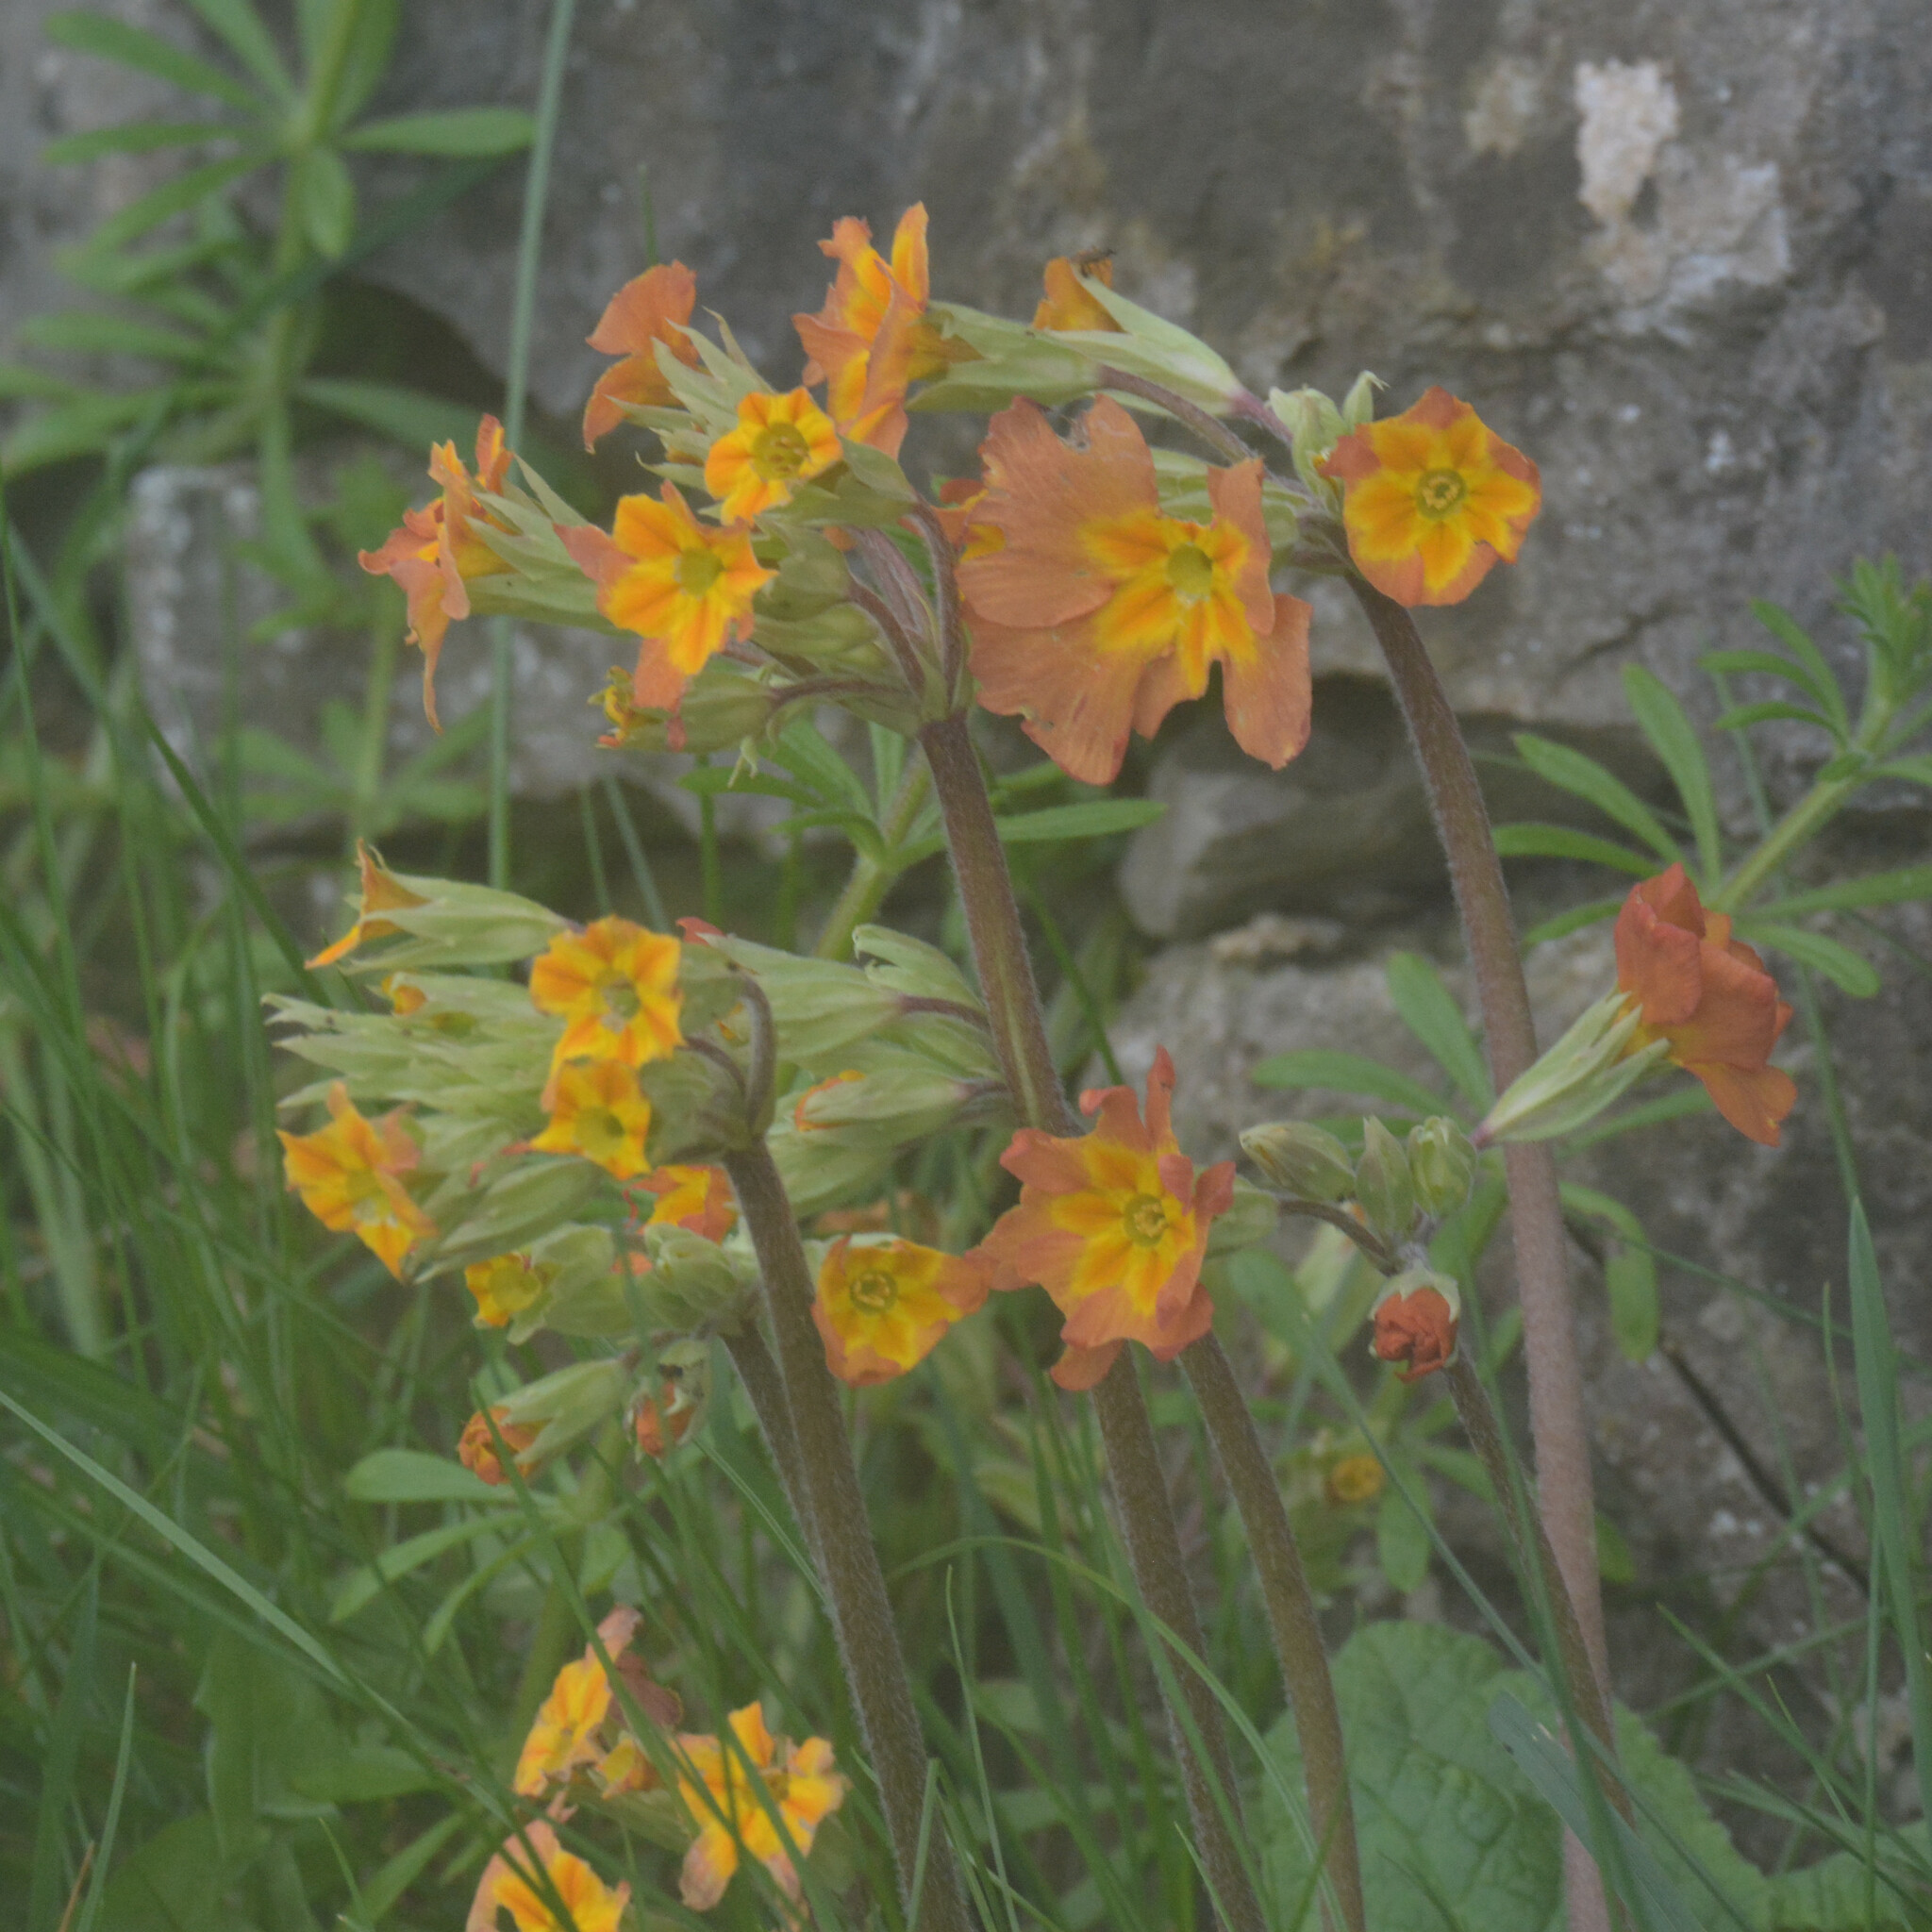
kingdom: Plantae
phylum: Tracheophyta
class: Magnoliopsida
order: Ericales
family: Primulaceae
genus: Primula
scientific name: Primula polyantha
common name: False oxlip
